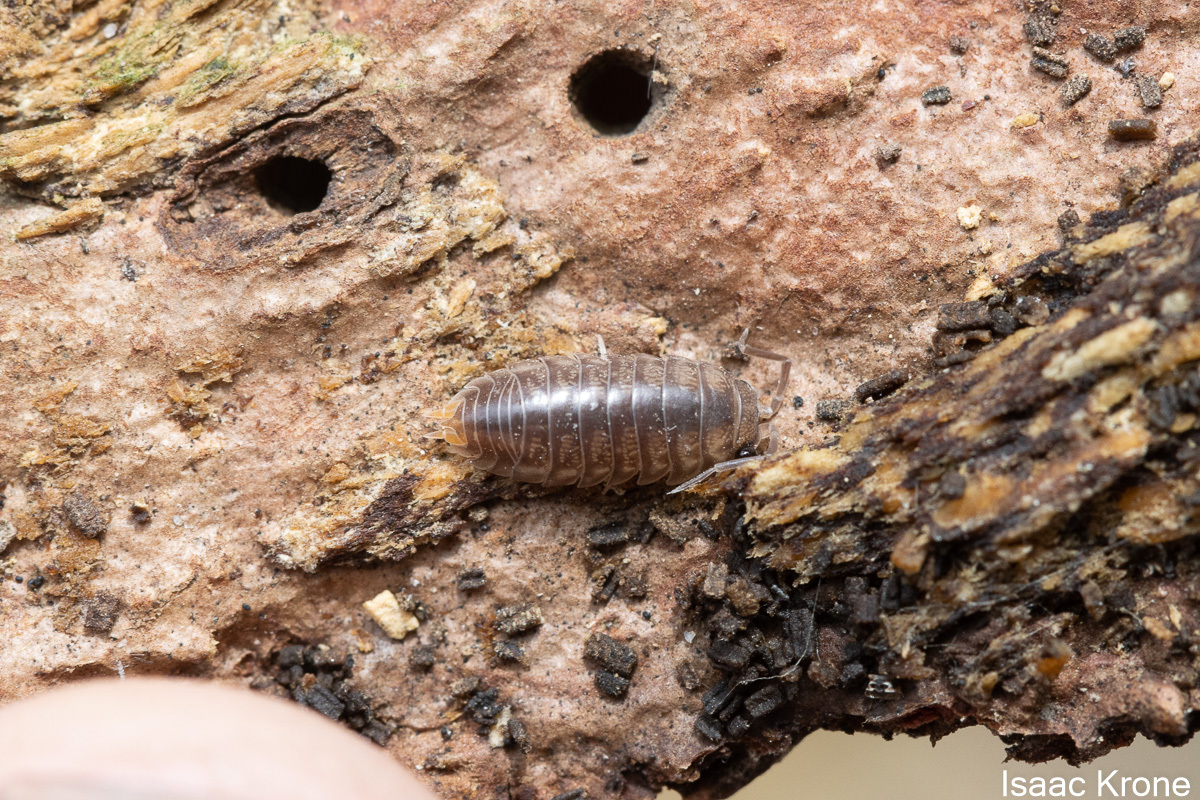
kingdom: Animalia
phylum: Arthropoda
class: Malacostraca
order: Isopoda
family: Cylisticidae
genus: Cylisticus
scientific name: Cylisticus convexus
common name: Curly woodlouse
